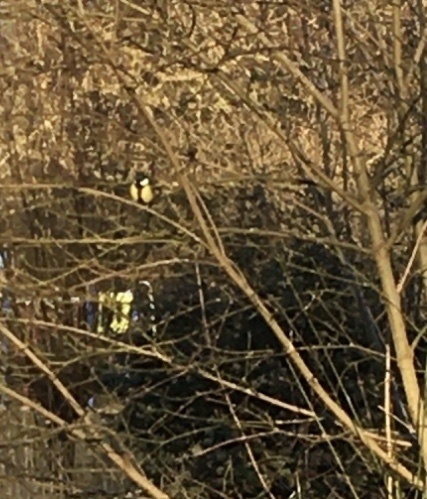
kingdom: Animalia
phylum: Chordata
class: Aves
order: Passeriformes
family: Paridae
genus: Parus
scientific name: Parus major
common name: Great tit
